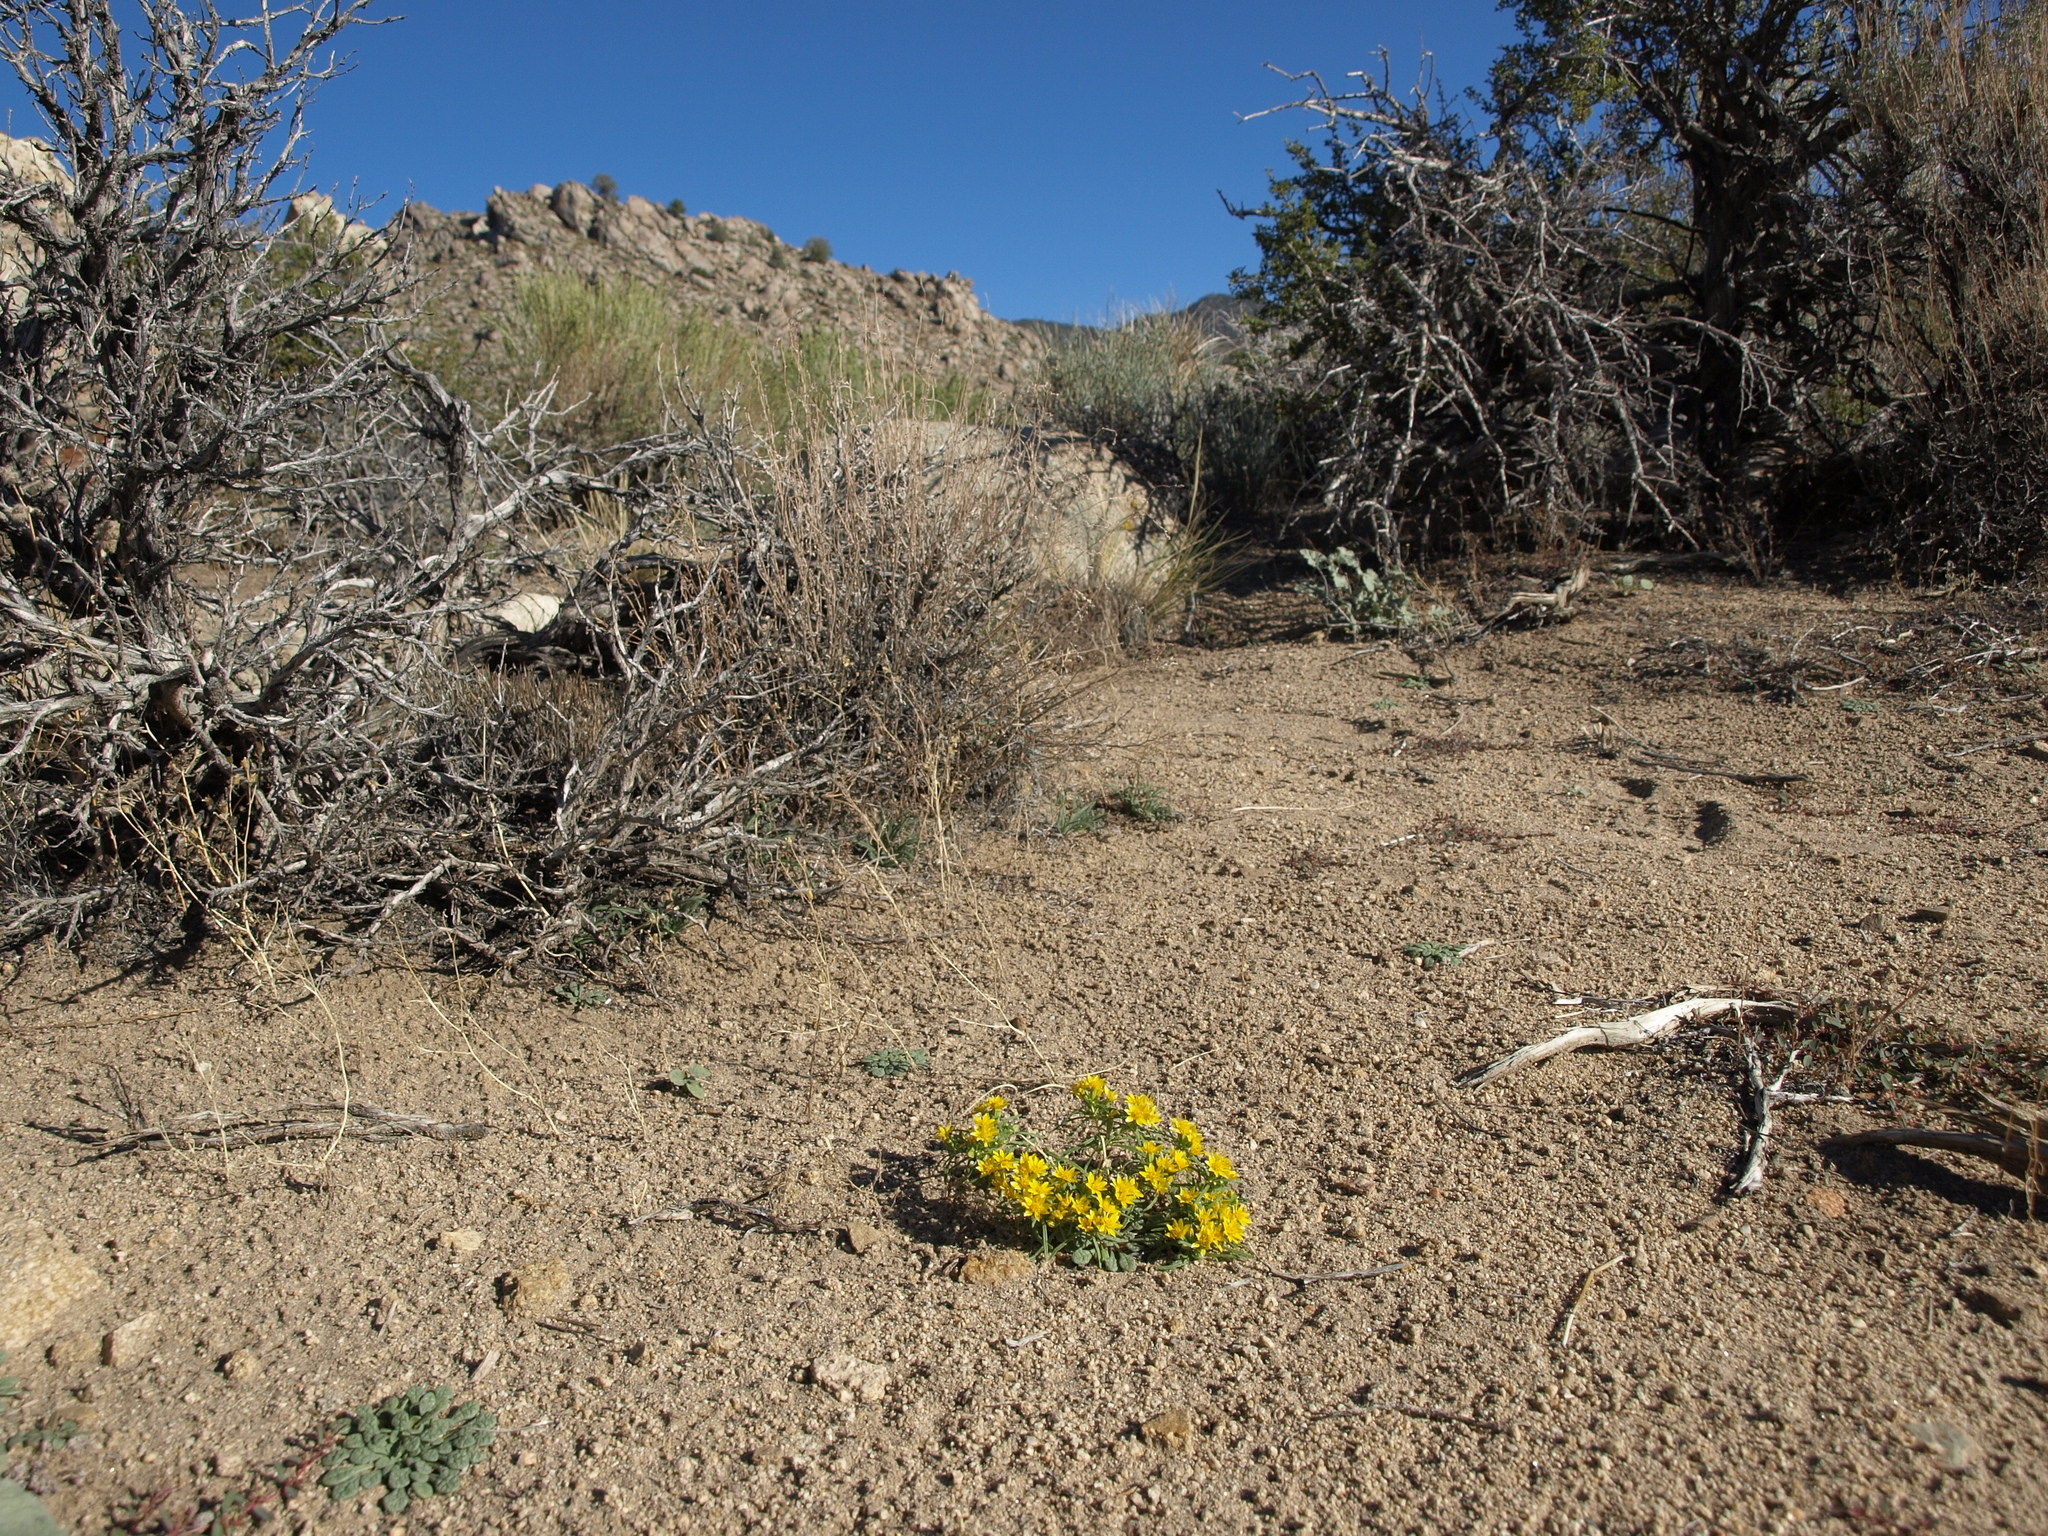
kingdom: Plantae
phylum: Tracheophyta
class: Magnoliopsida
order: Asterales
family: Asteraceae
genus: Pectis
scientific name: Pectis papposa
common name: Many-bristle chinchweed
